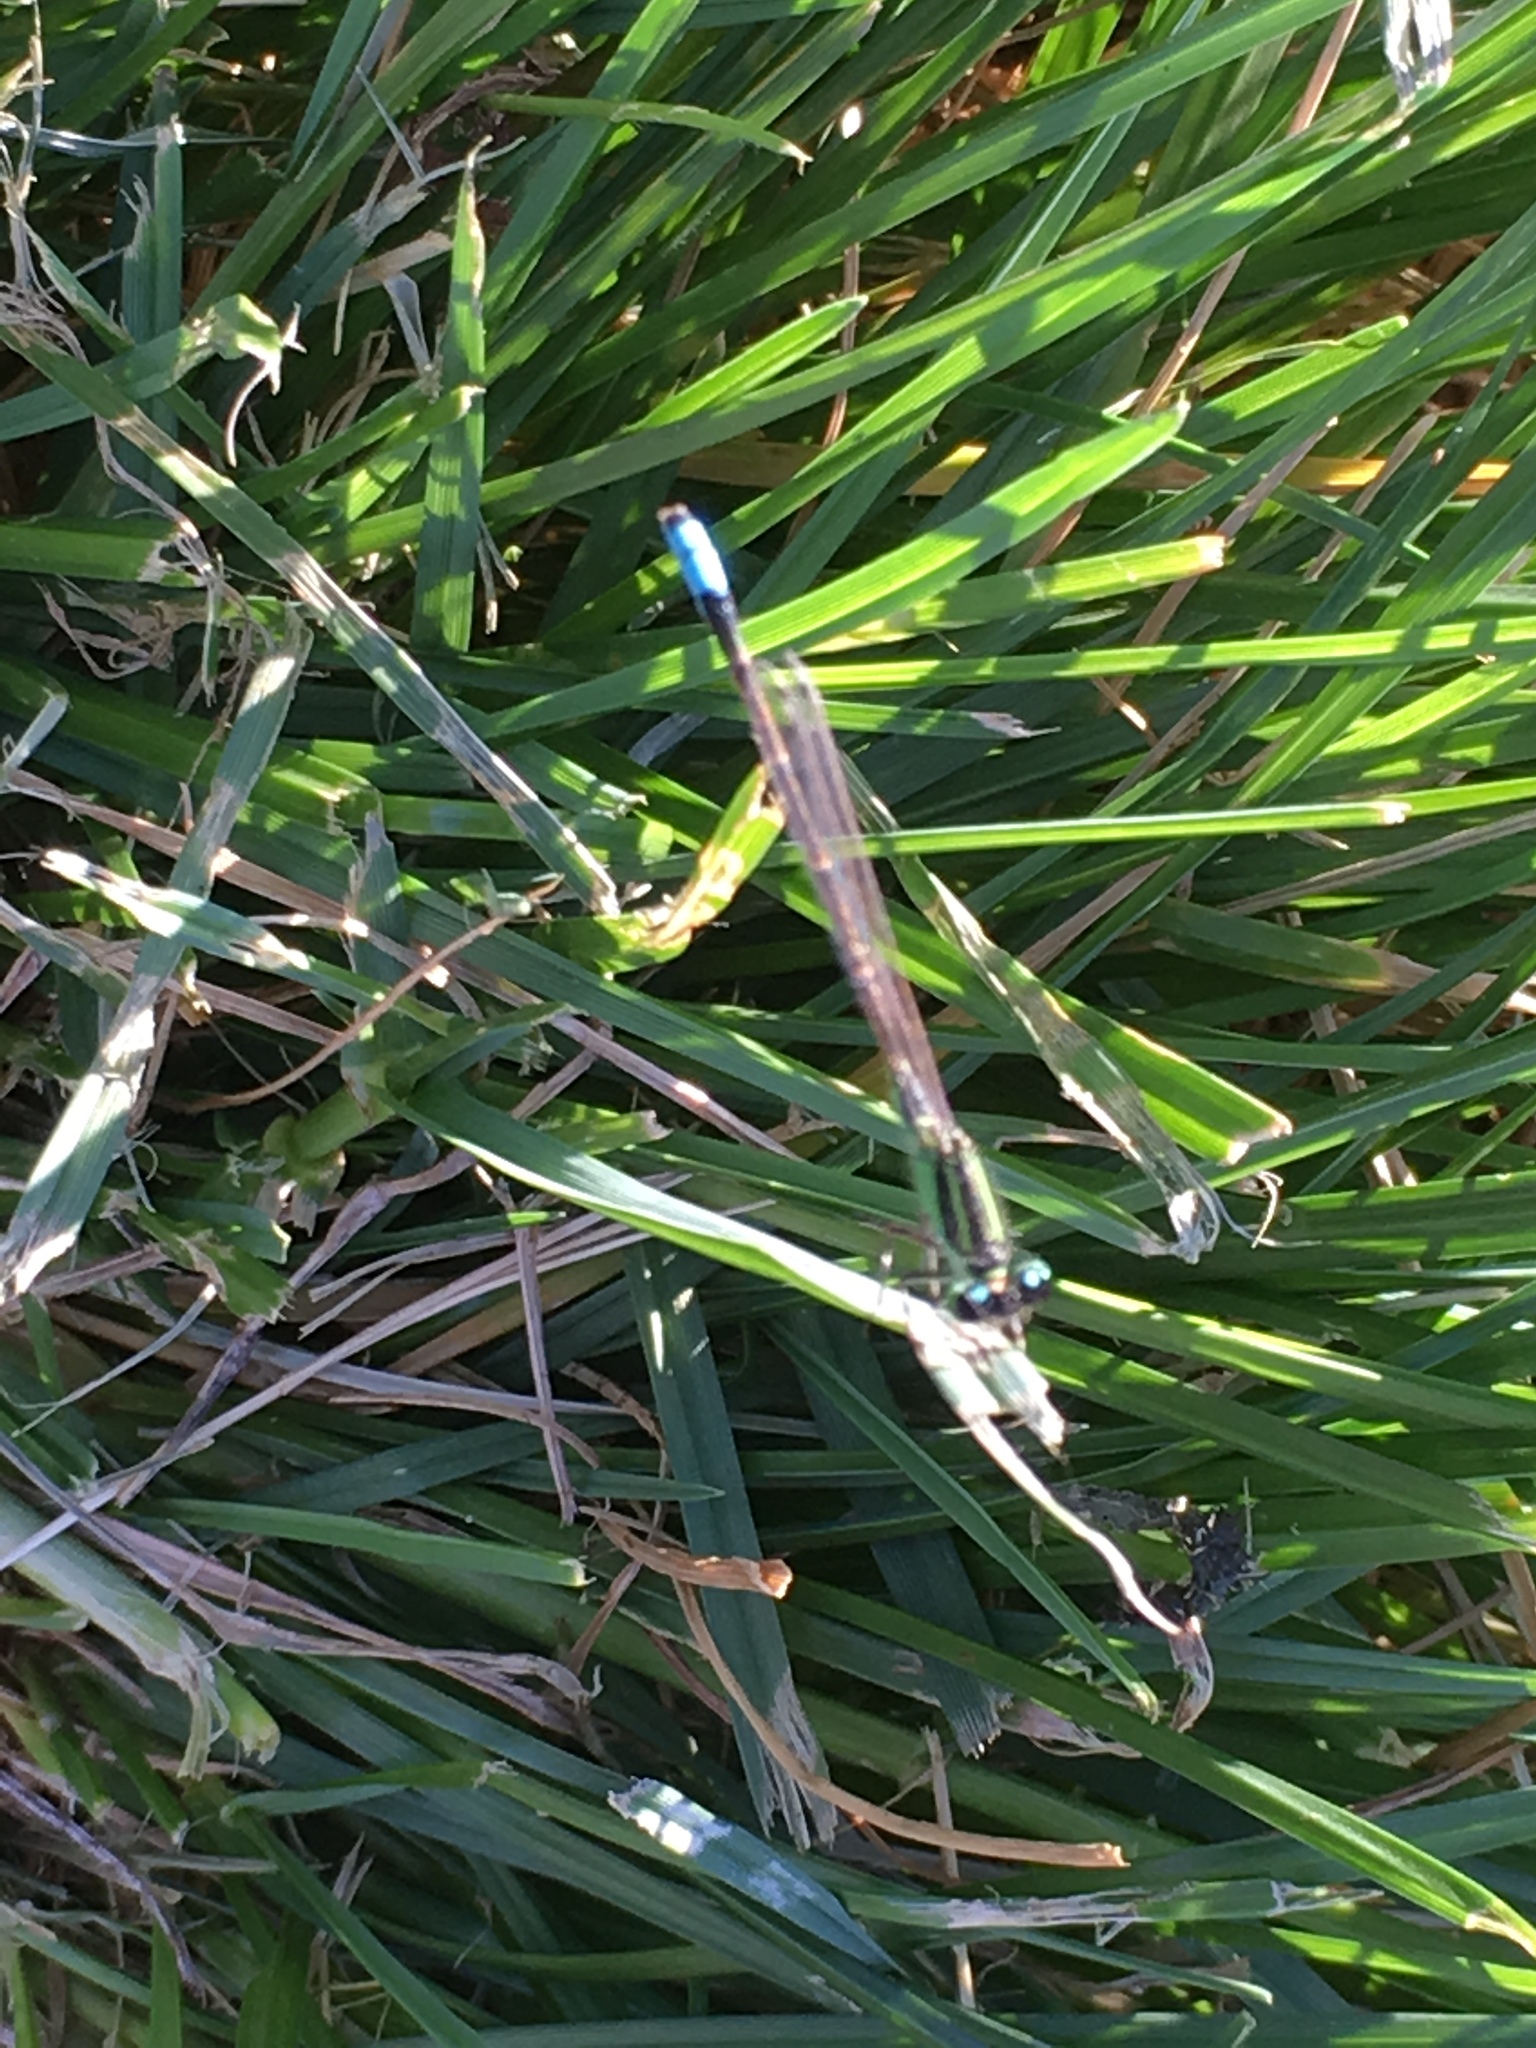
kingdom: Animalia
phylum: Arthropoda
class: Insecta
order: Odonata
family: Coenagrionidae
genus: Ischnura
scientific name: Ischnura barberi
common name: Desert forktail
